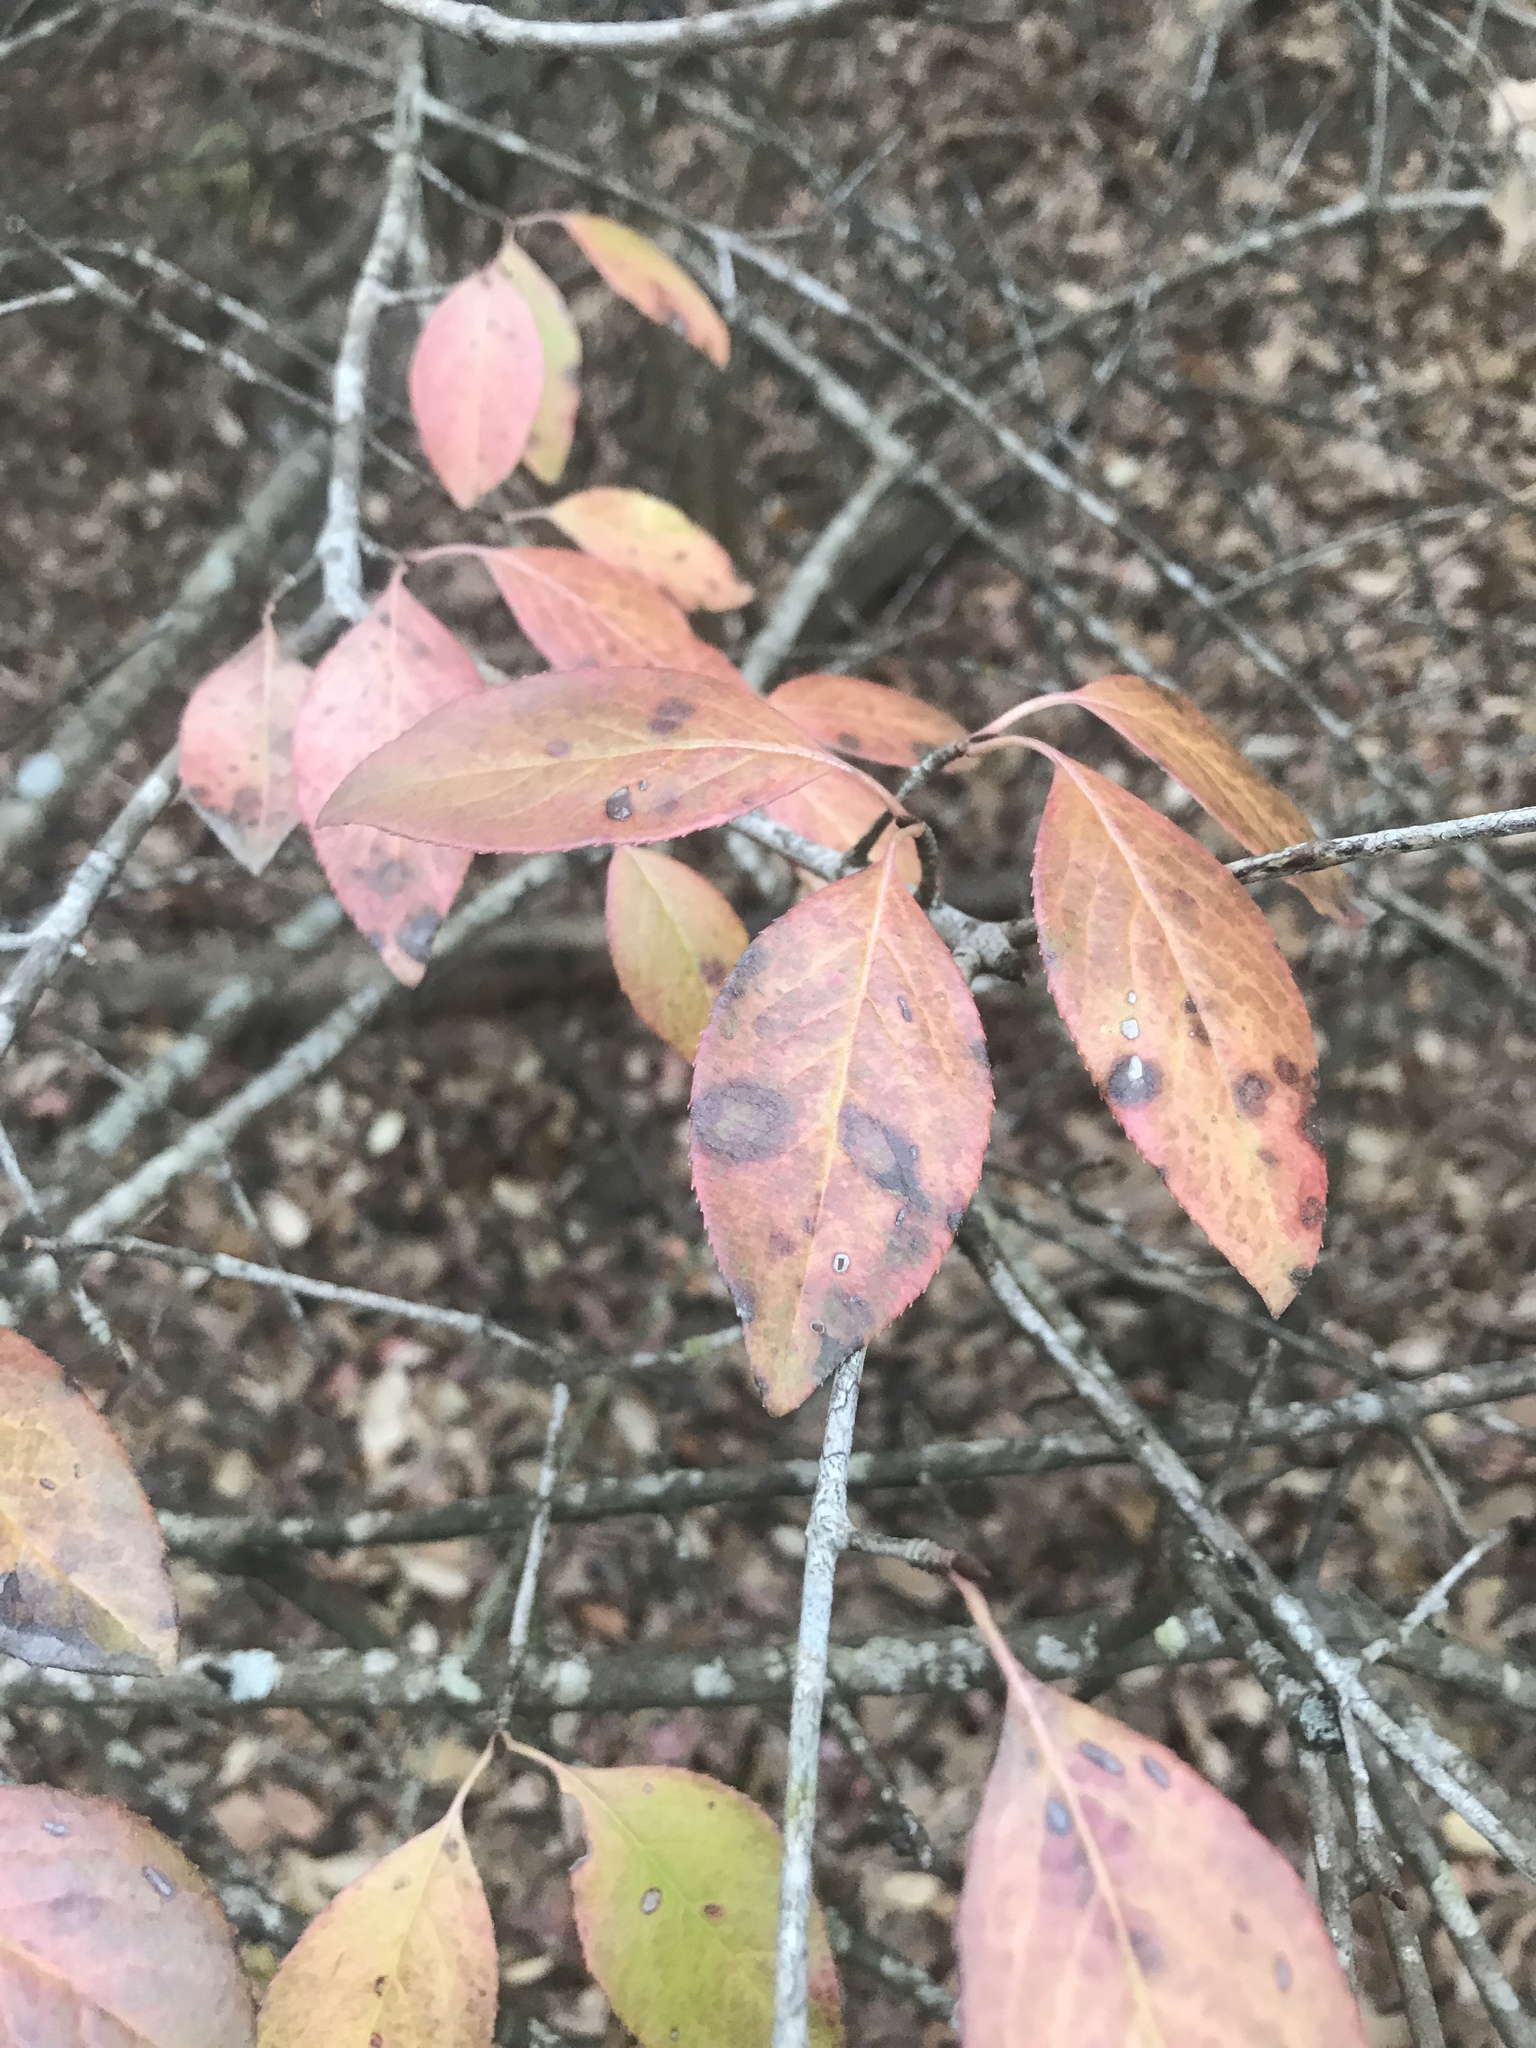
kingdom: Plantae
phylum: Tracheophyta
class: Magnoliopsida
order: Dipsacales
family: Viburnaceae
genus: Viburnum
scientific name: Viburnum rufidulum
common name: Blue haw
